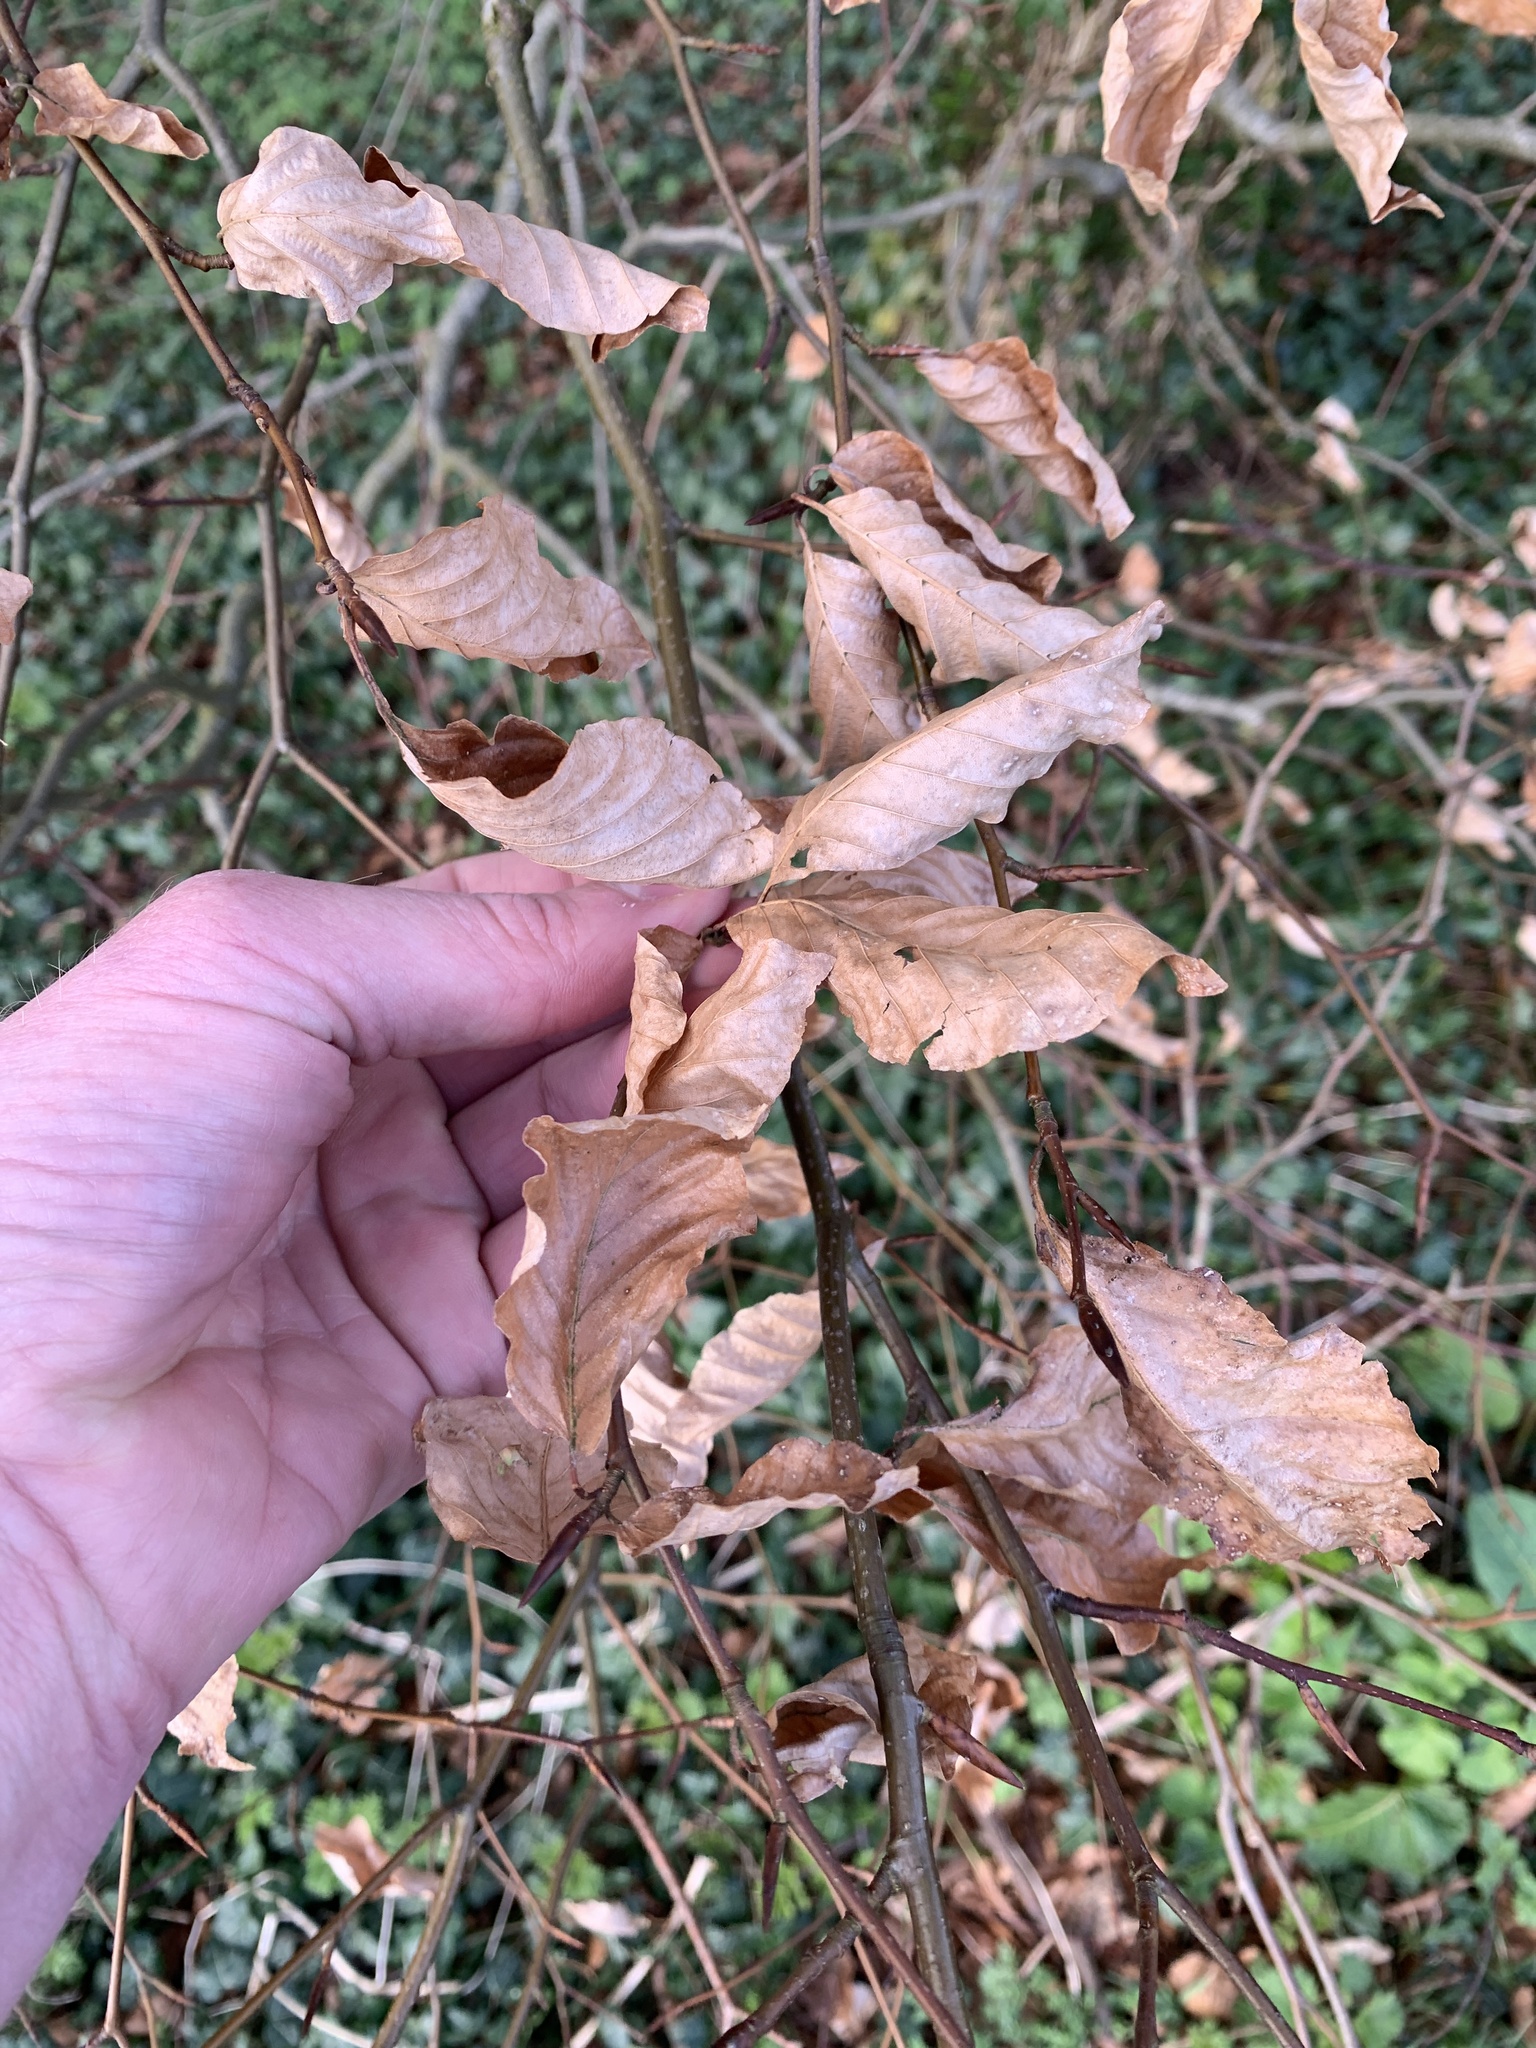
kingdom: Plantae
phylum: Tracheophyta
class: Magnoliopsida
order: Fagales
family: Fagaceae
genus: Fagus
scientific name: Fagus sylvatica
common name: Beech
